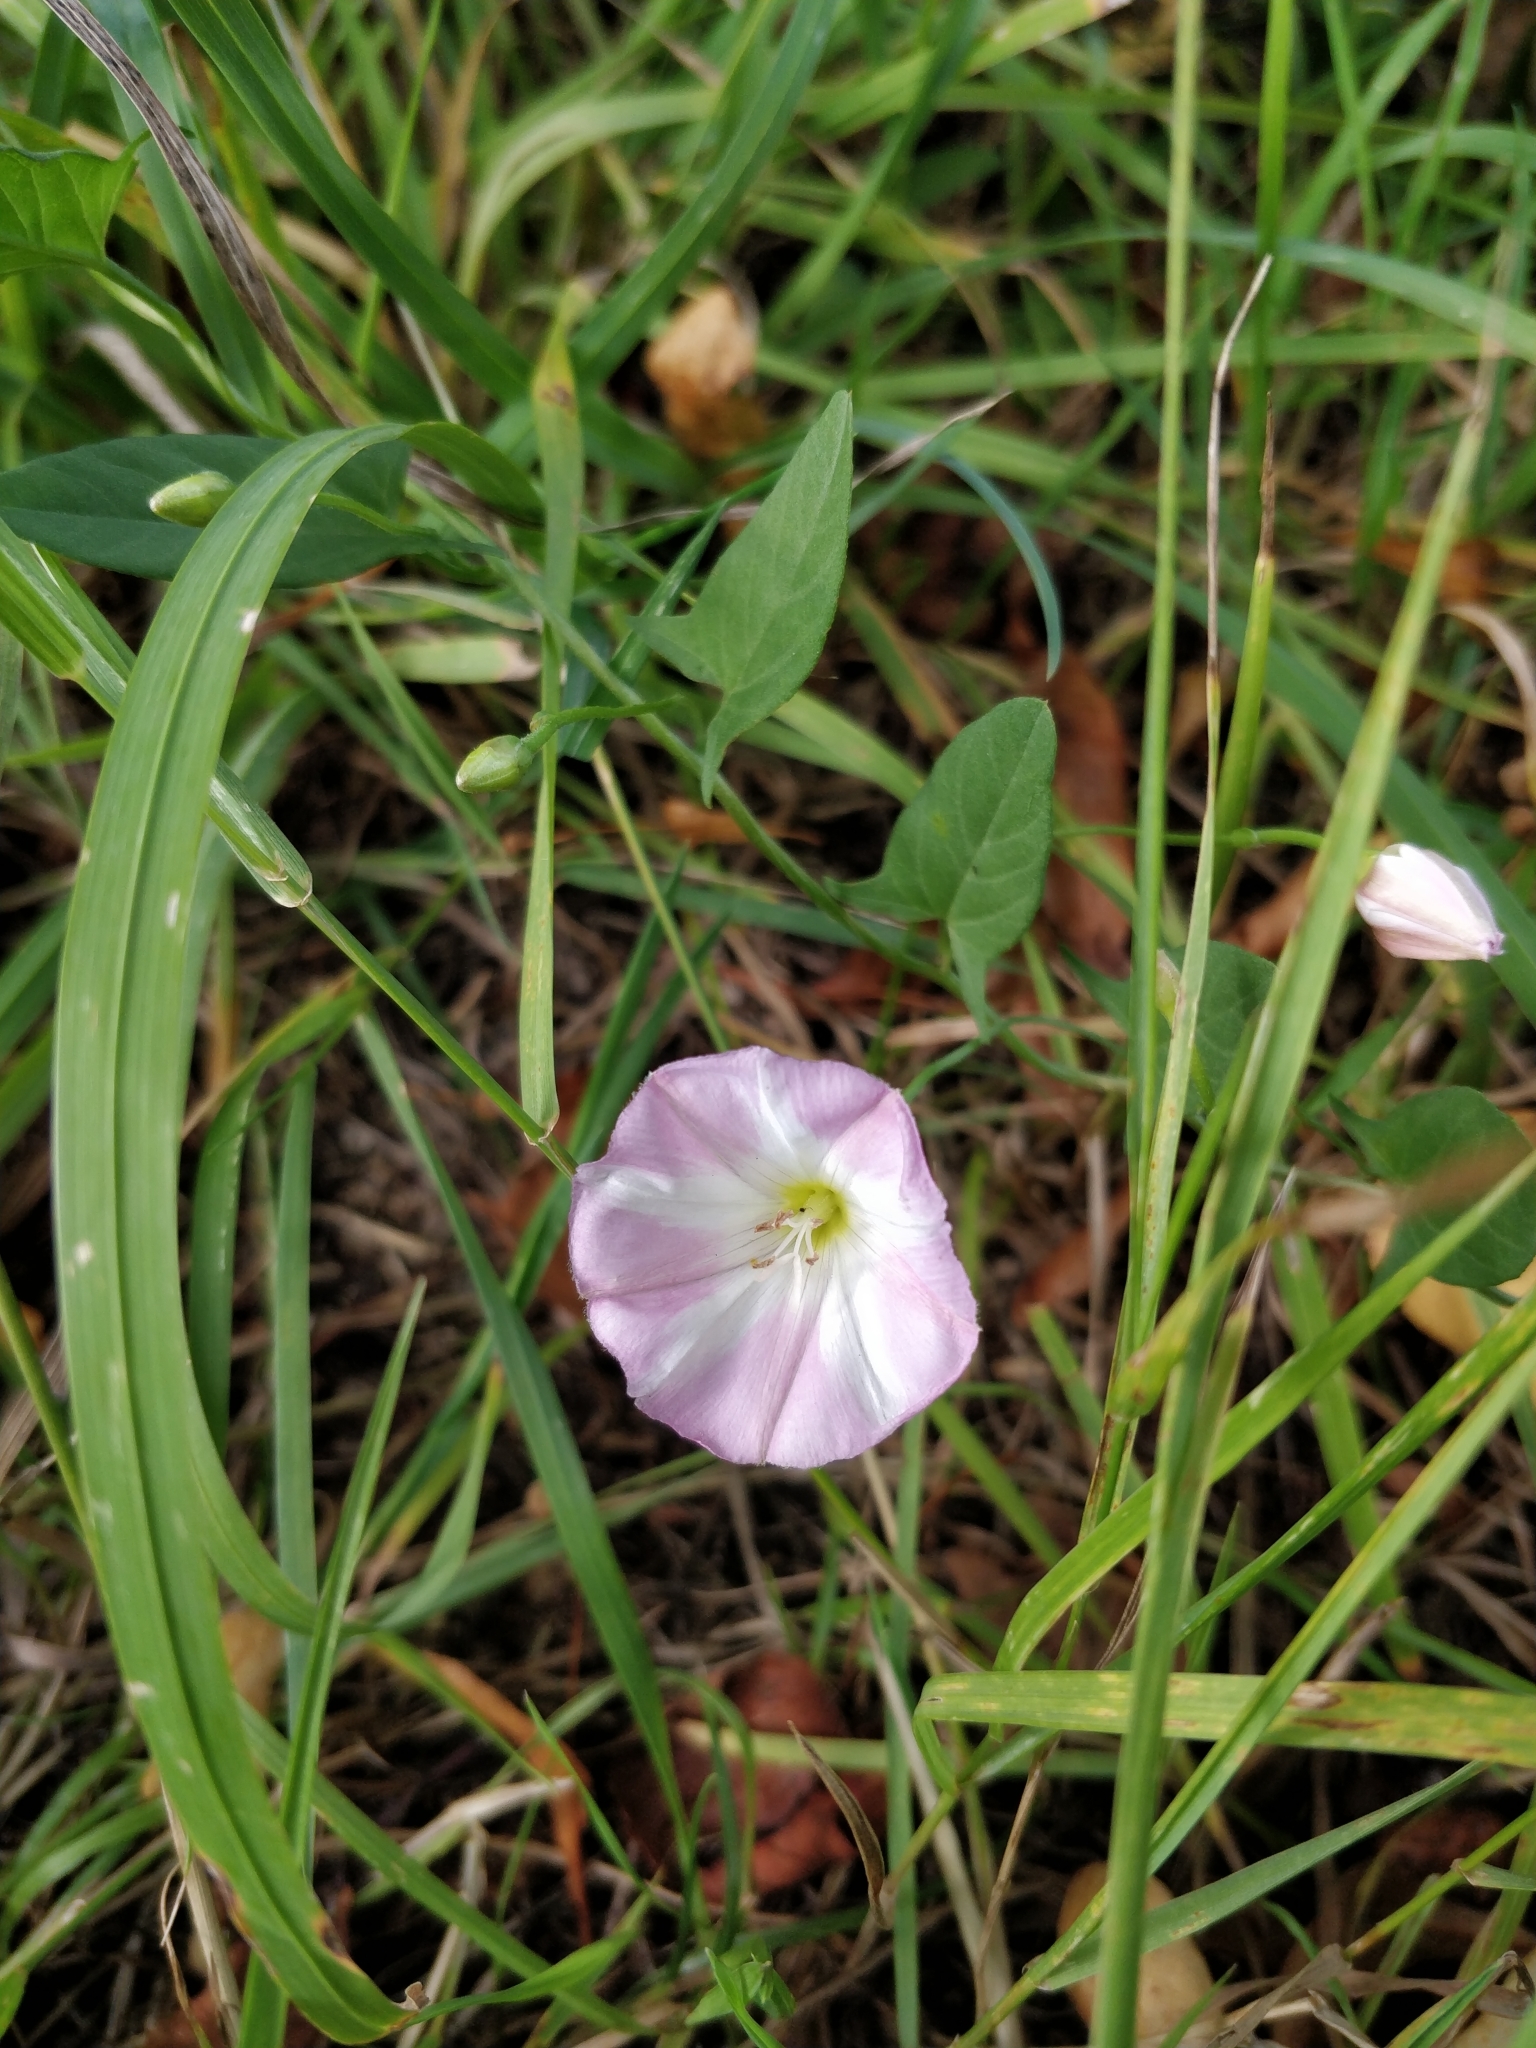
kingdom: Plantae
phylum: Tracheophyta
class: Magnoliopsida
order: Solanales
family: Convolvulaceae
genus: Convolvulus
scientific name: Convolvulus arvensis
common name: Field bindweed
